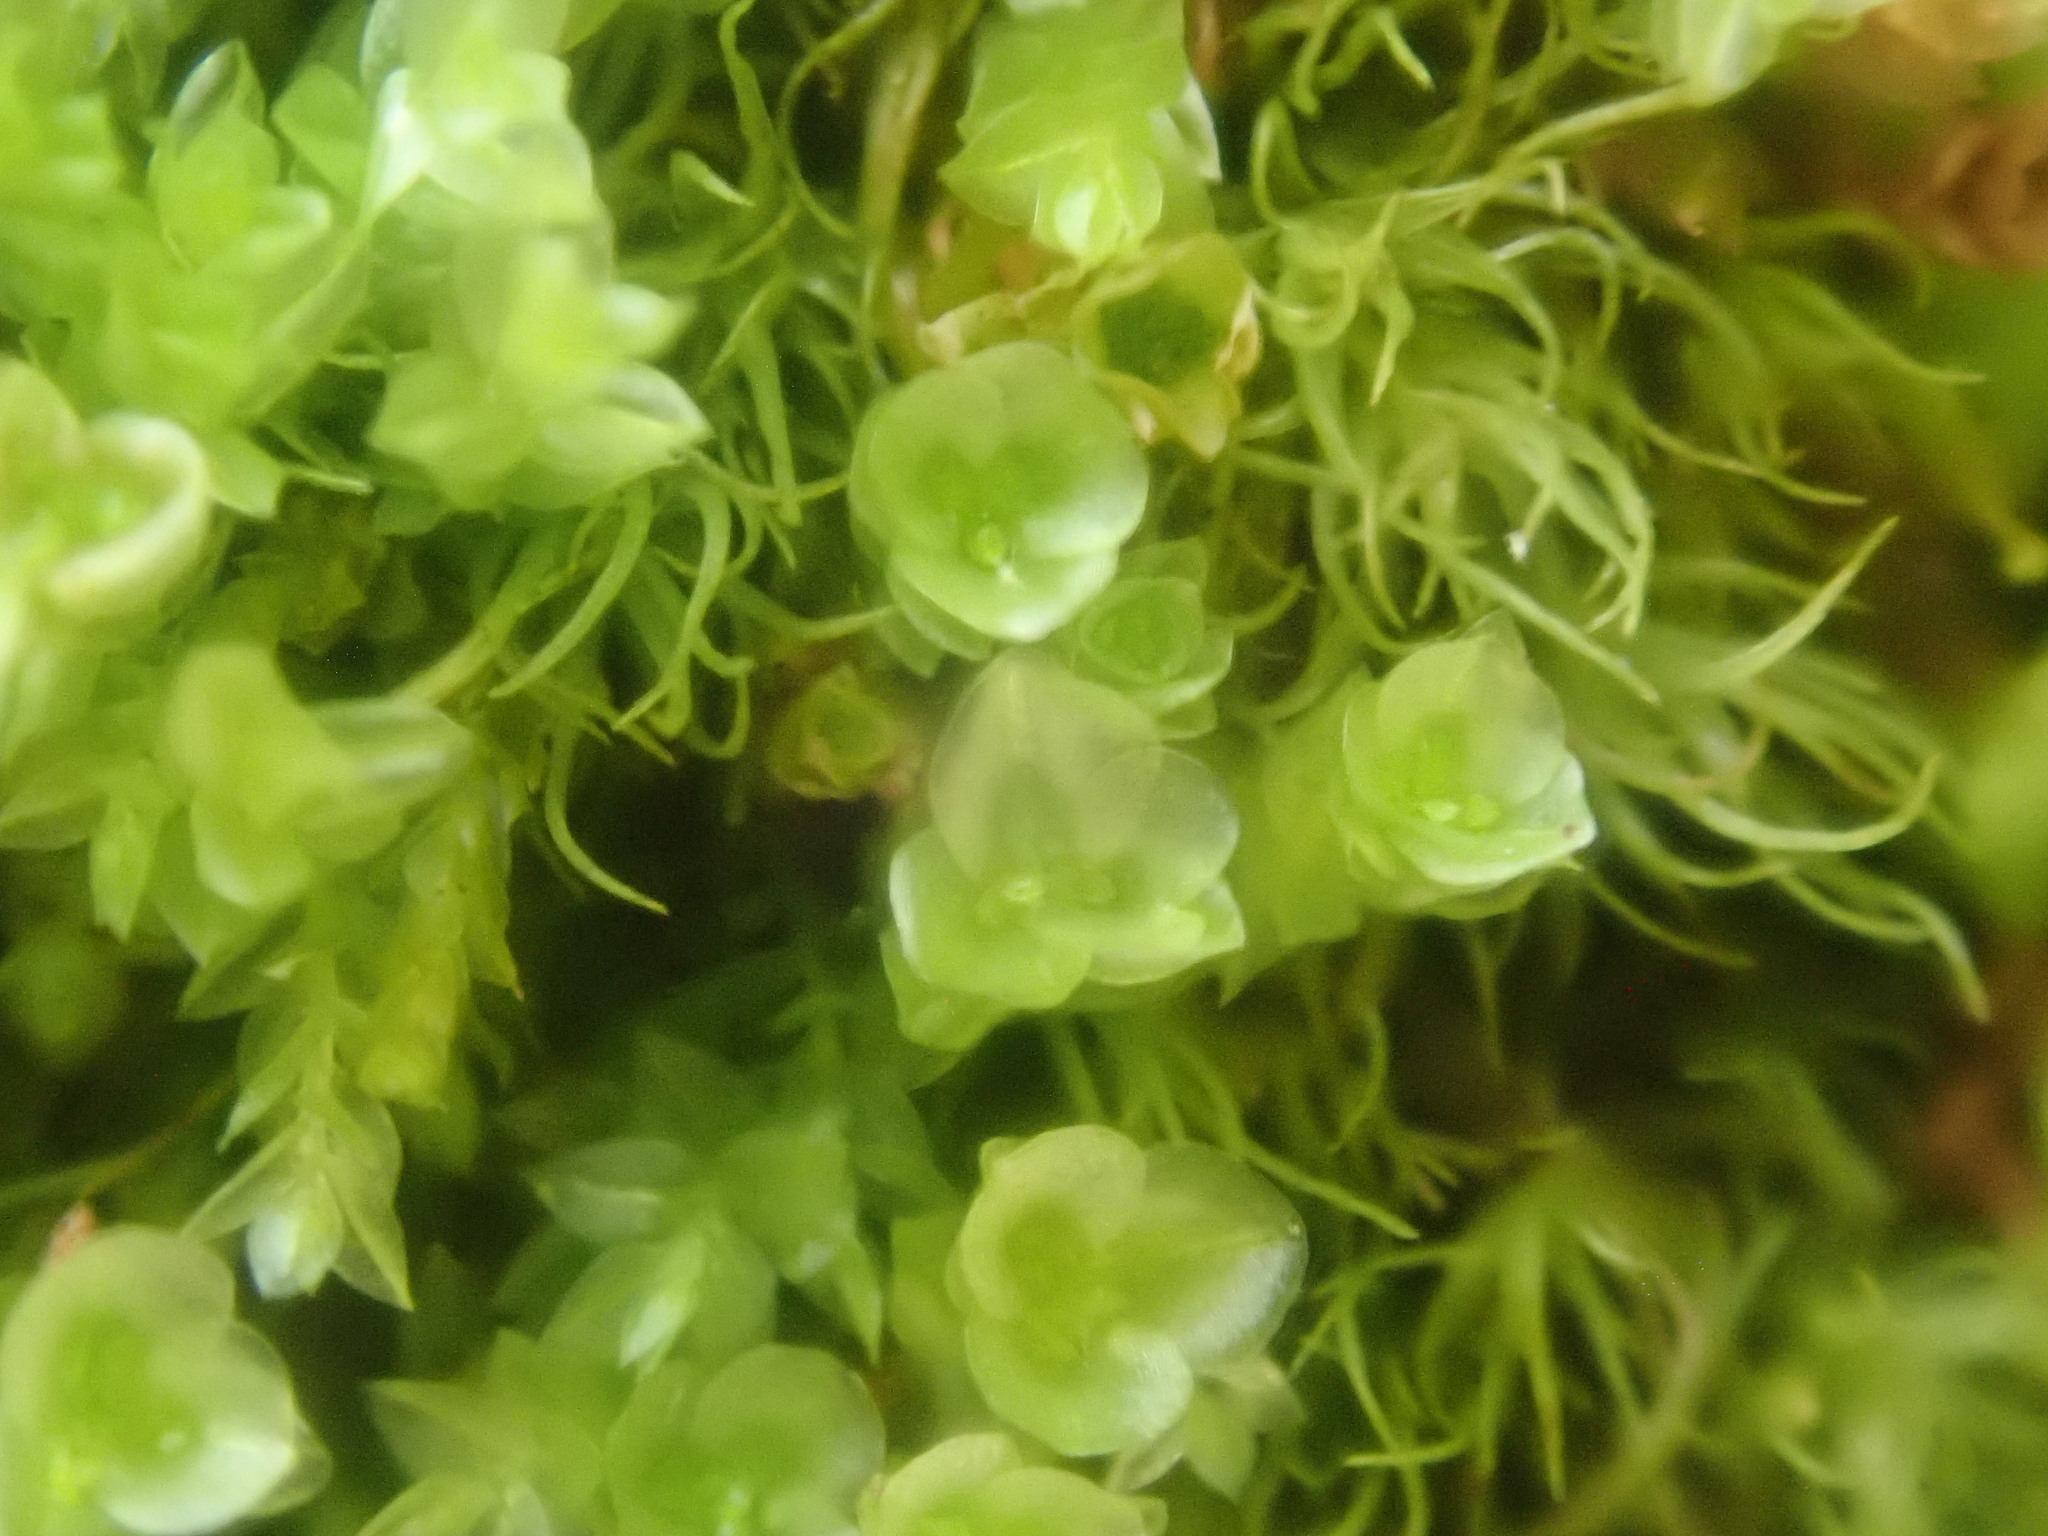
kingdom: Plantae
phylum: Bryophyta
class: Polytrichopsida
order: Tetraphidales
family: Tetraphidaceae
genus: Tetraphis
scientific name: Tetraphis pellucida
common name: Common four-toothed moss
